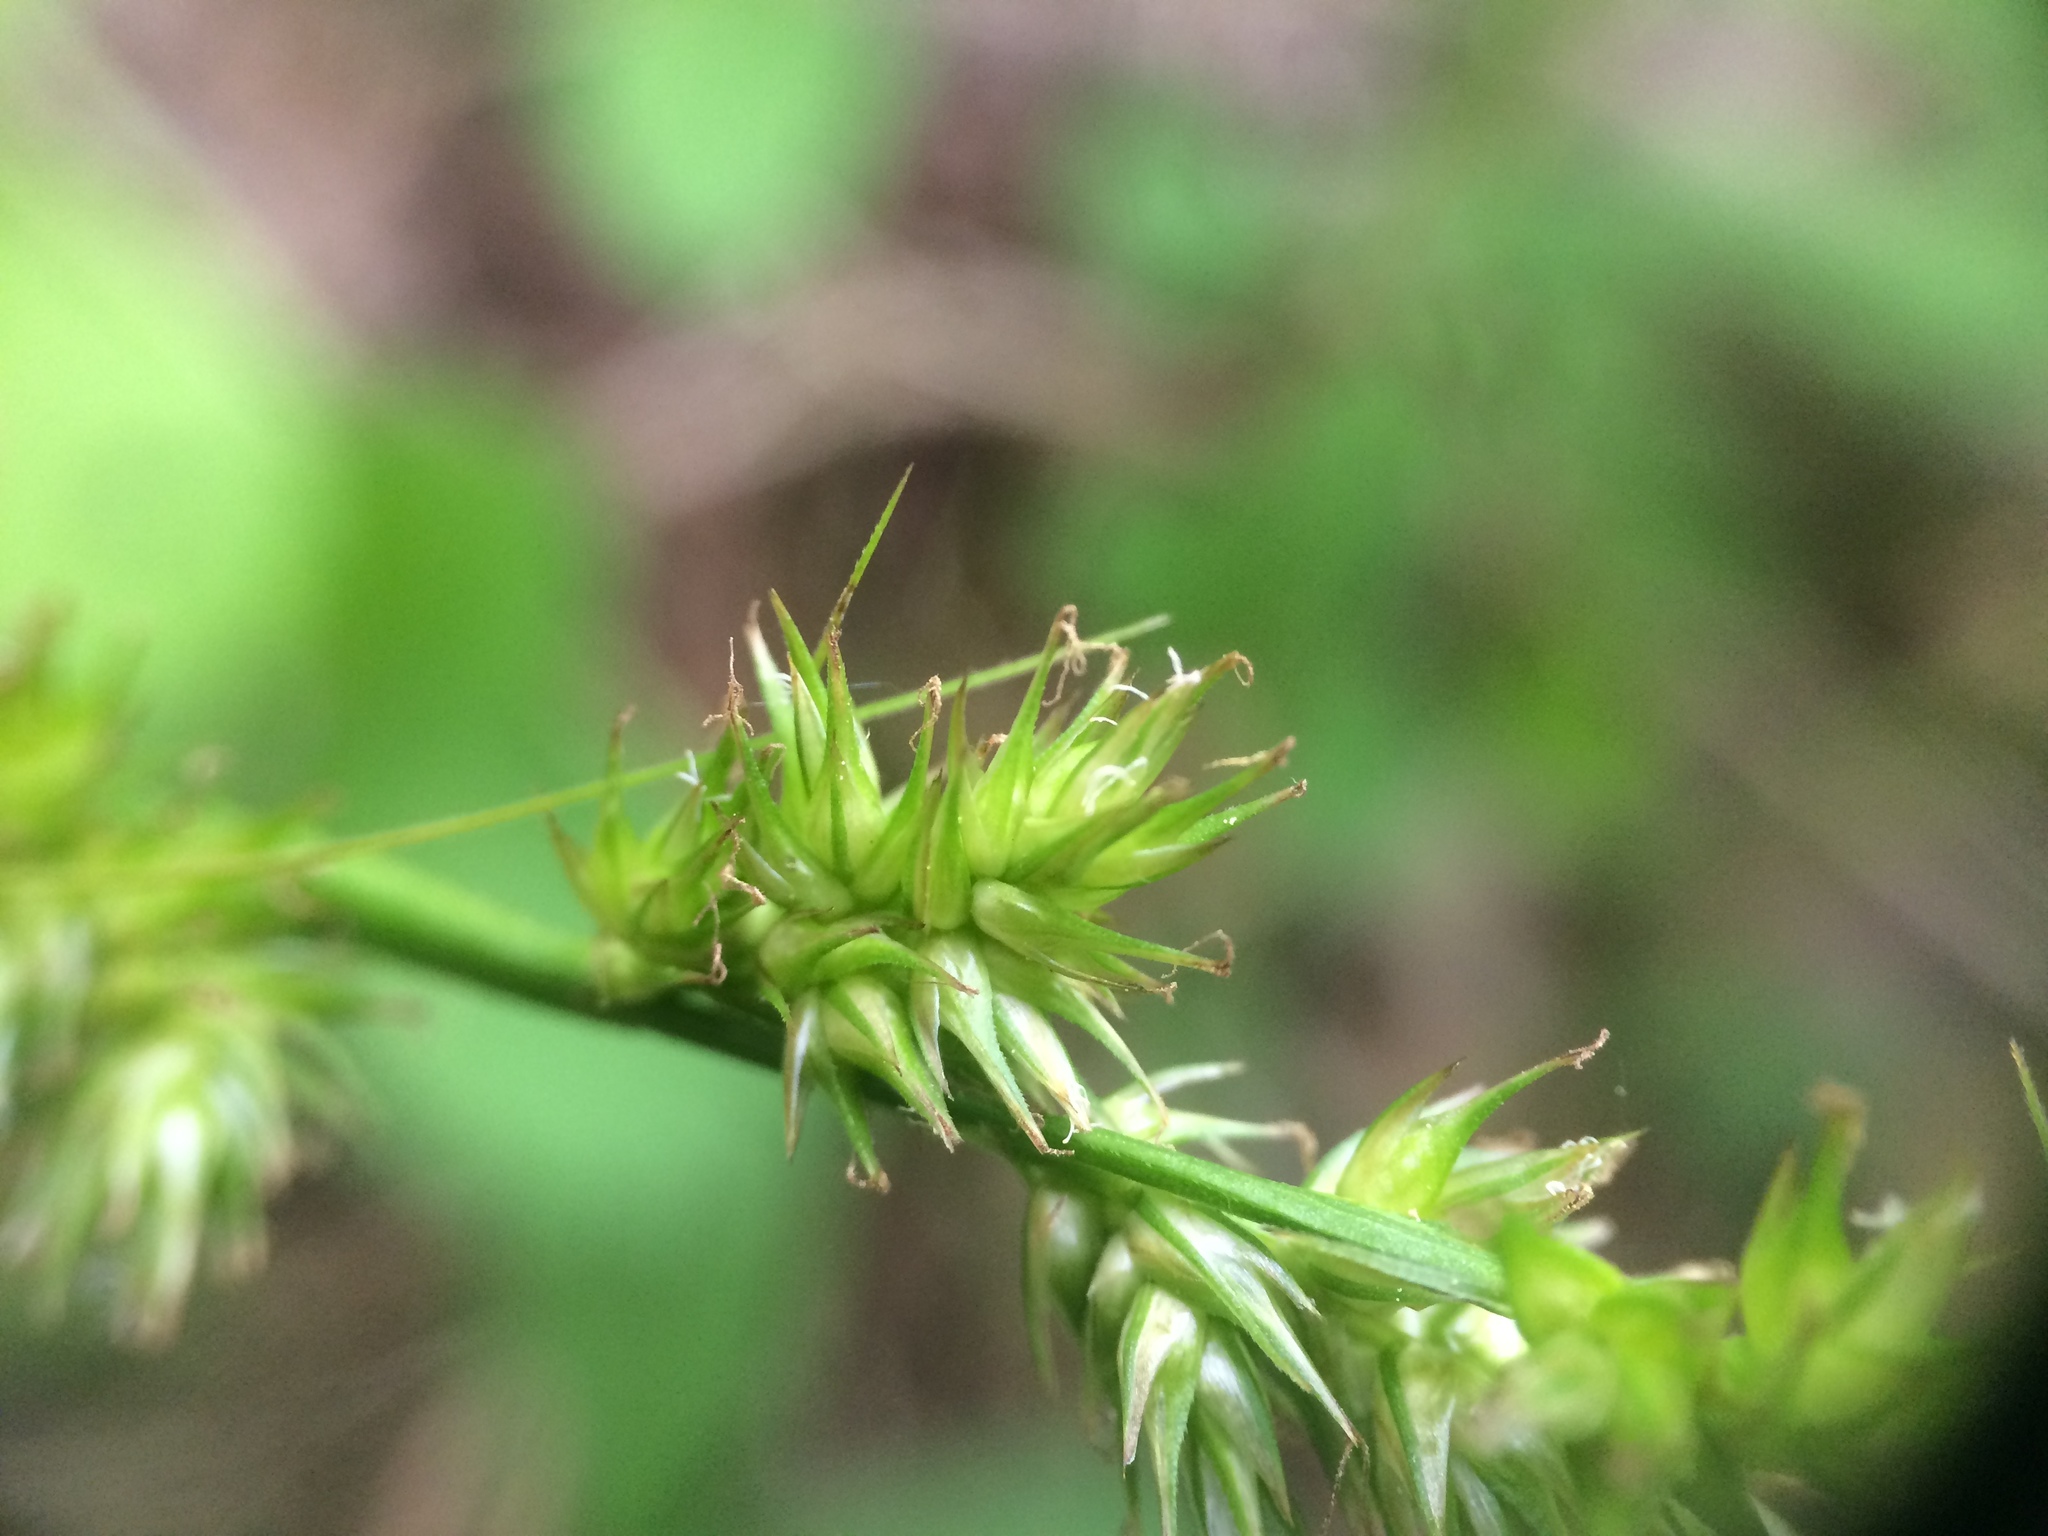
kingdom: Plantae
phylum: Tracheophyta
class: Liliopsida
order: Poales
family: Cyperaceae
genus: Carex
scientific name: Carex stipata
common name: Awl-fruited sedge
